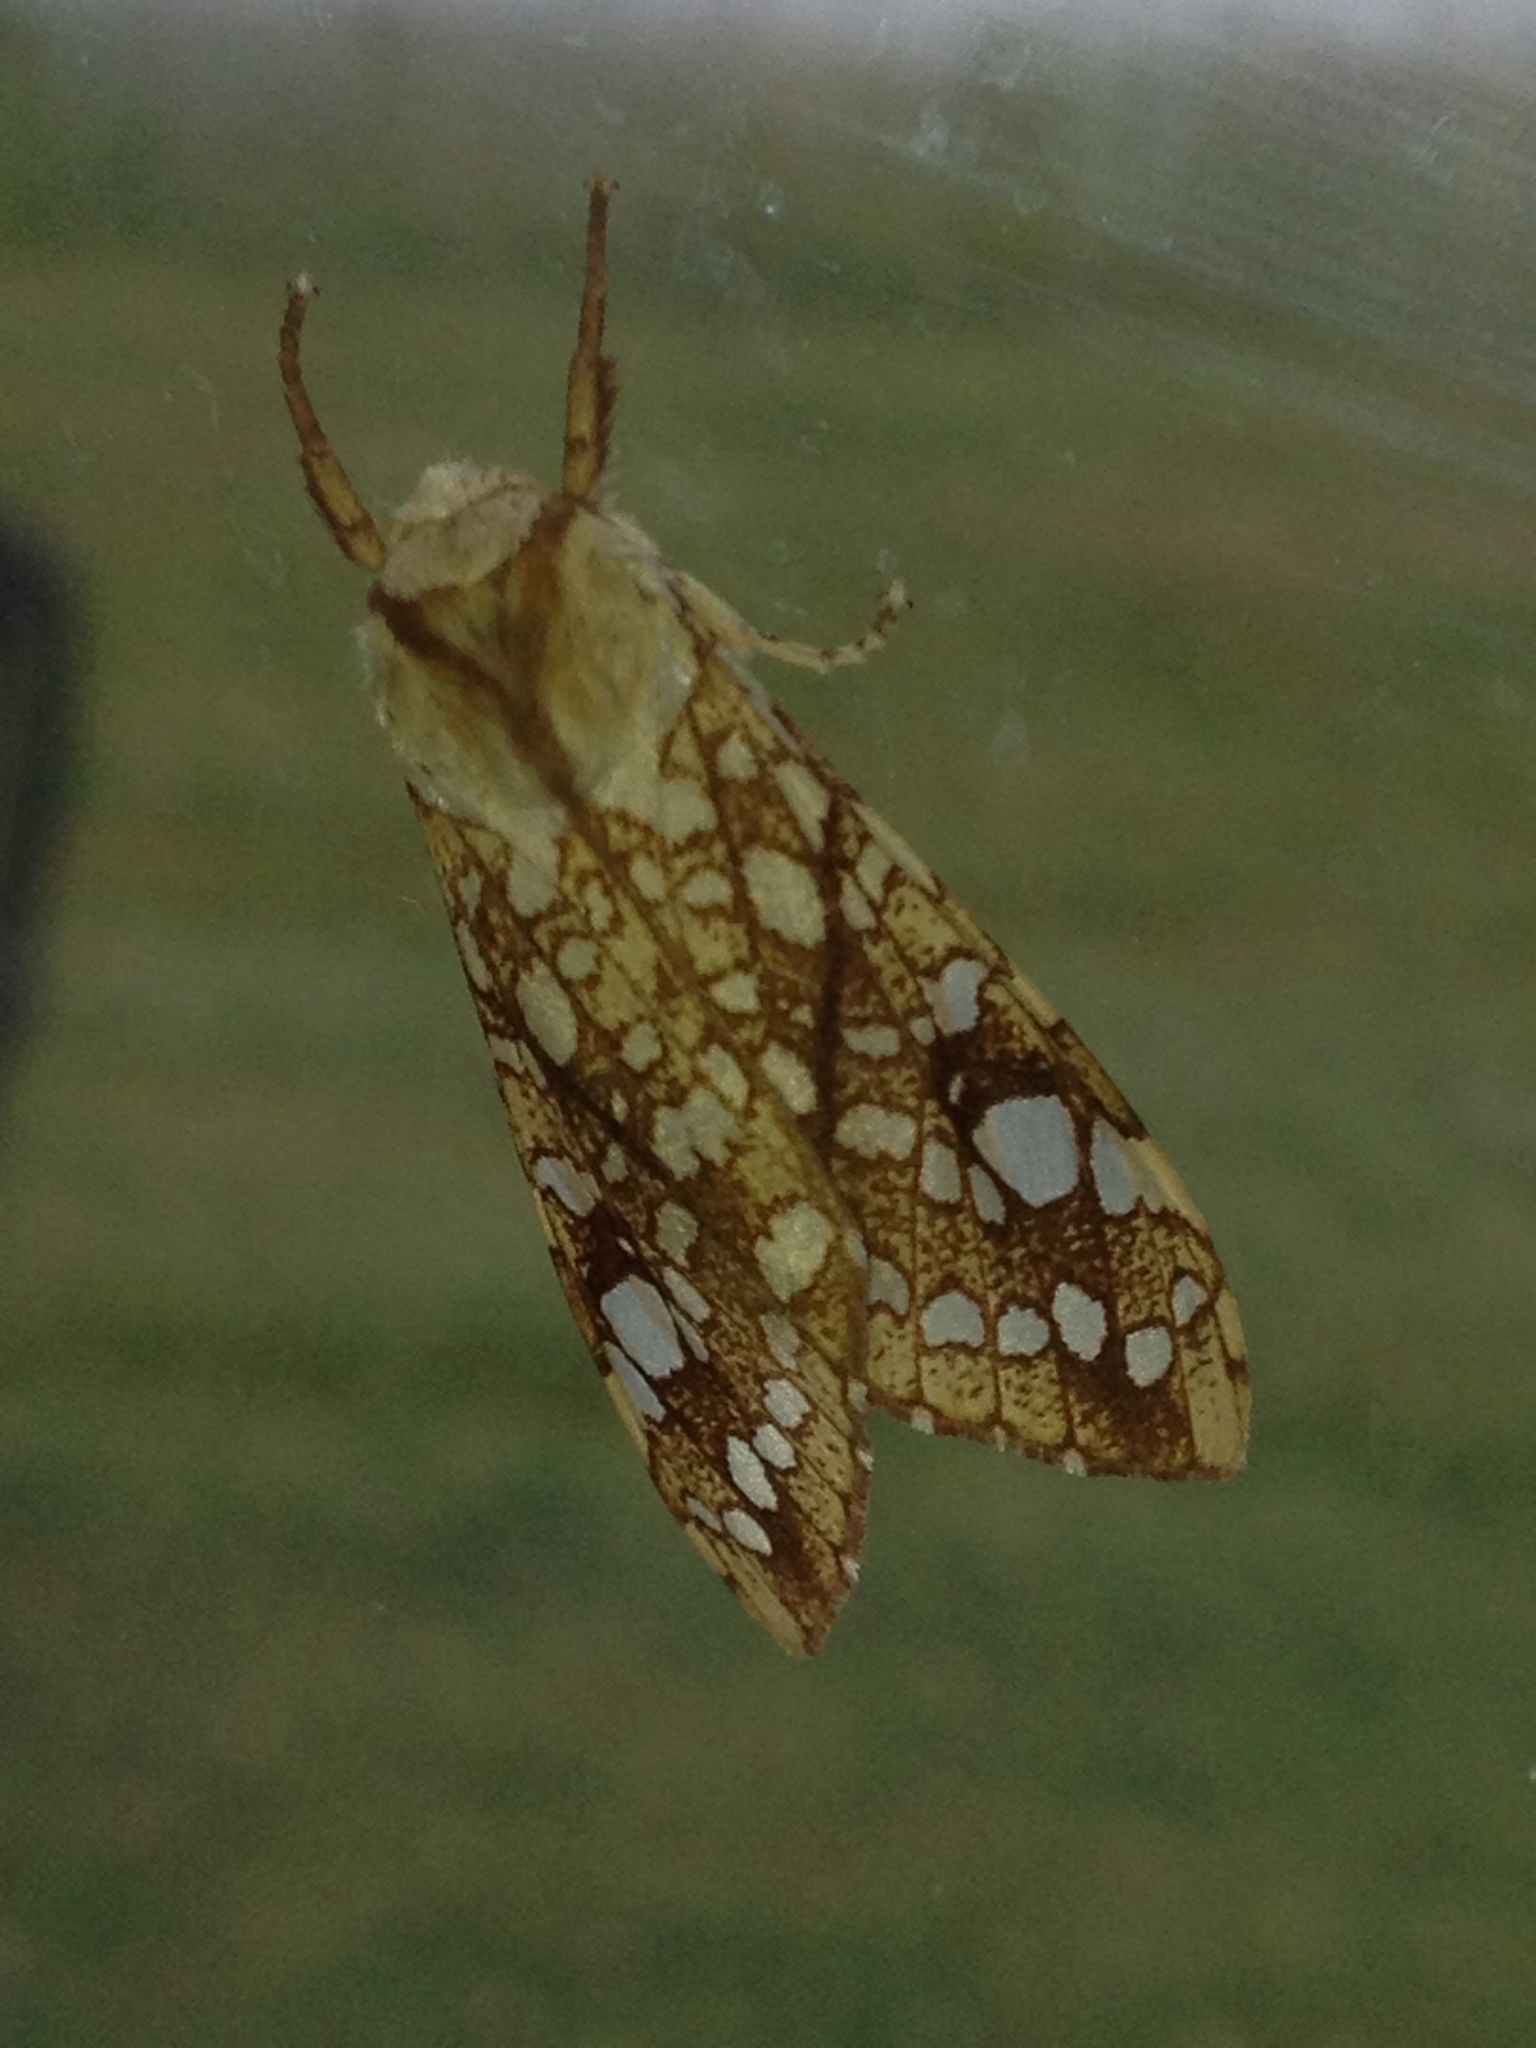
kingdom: Animalia
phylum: Arthropoda
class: Insecta
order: Lepidoptera
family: Erebidae
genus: Lophocampa
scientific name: Lophocampa caryae
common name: Hickory tussock moth
